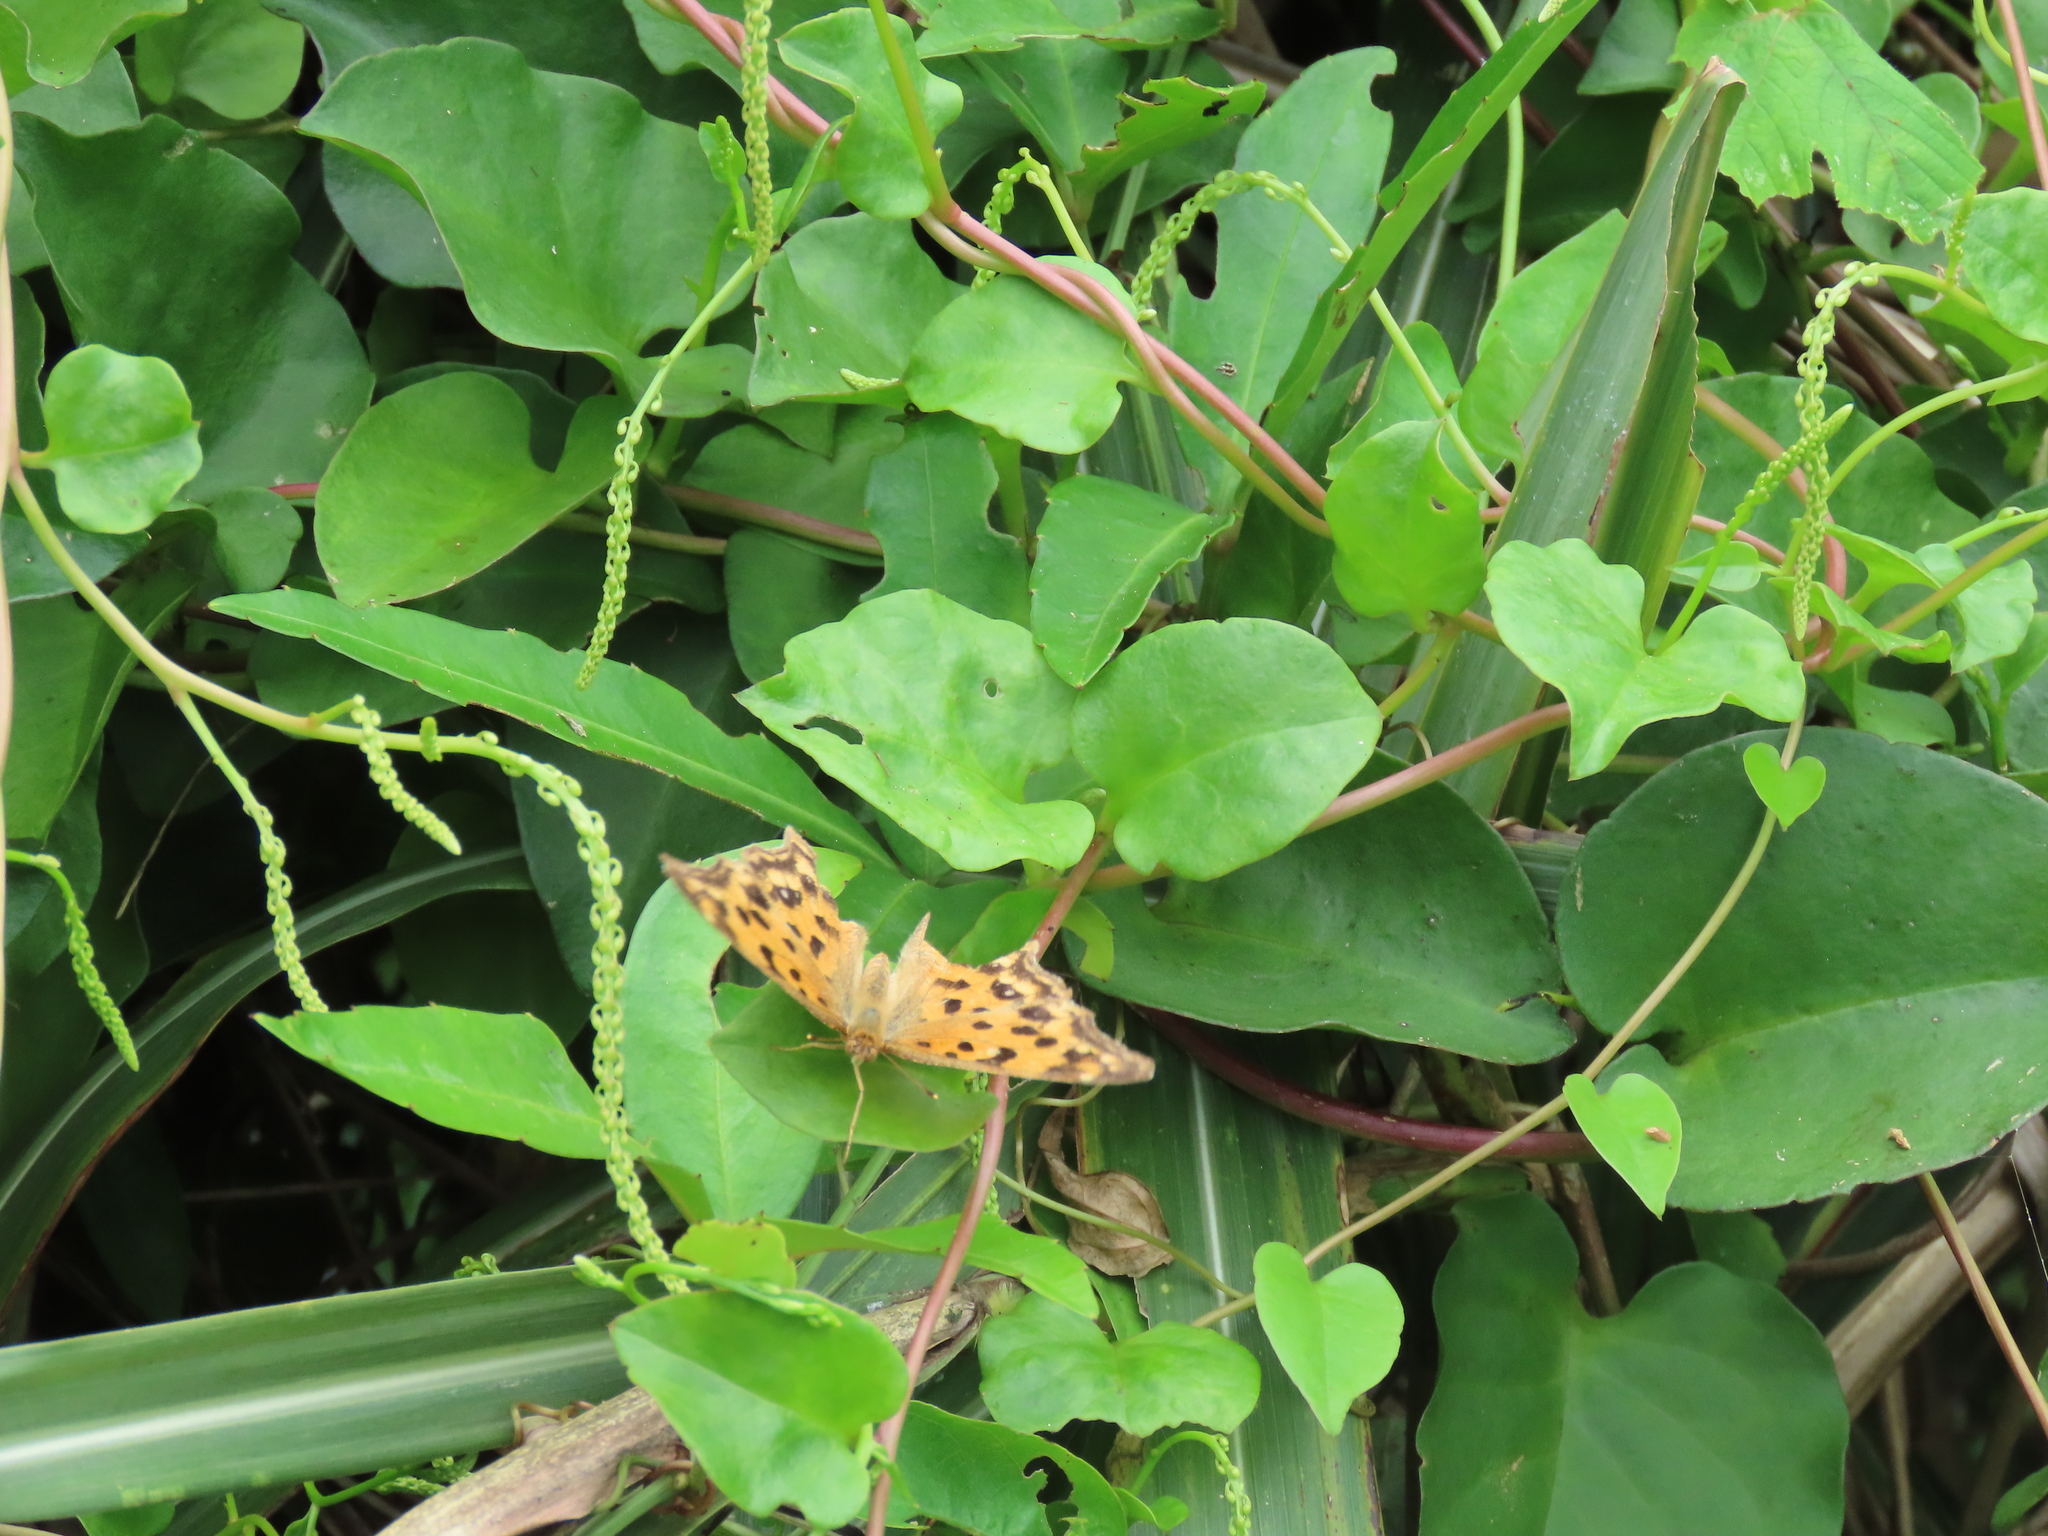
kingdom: Plantae
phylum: Tracheophyta
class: Magnoliopsida
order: Caryophyllales
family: Basellaceae
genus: Anredera
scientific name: Anredera cordifolia
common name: Heartleaf madeiravine
